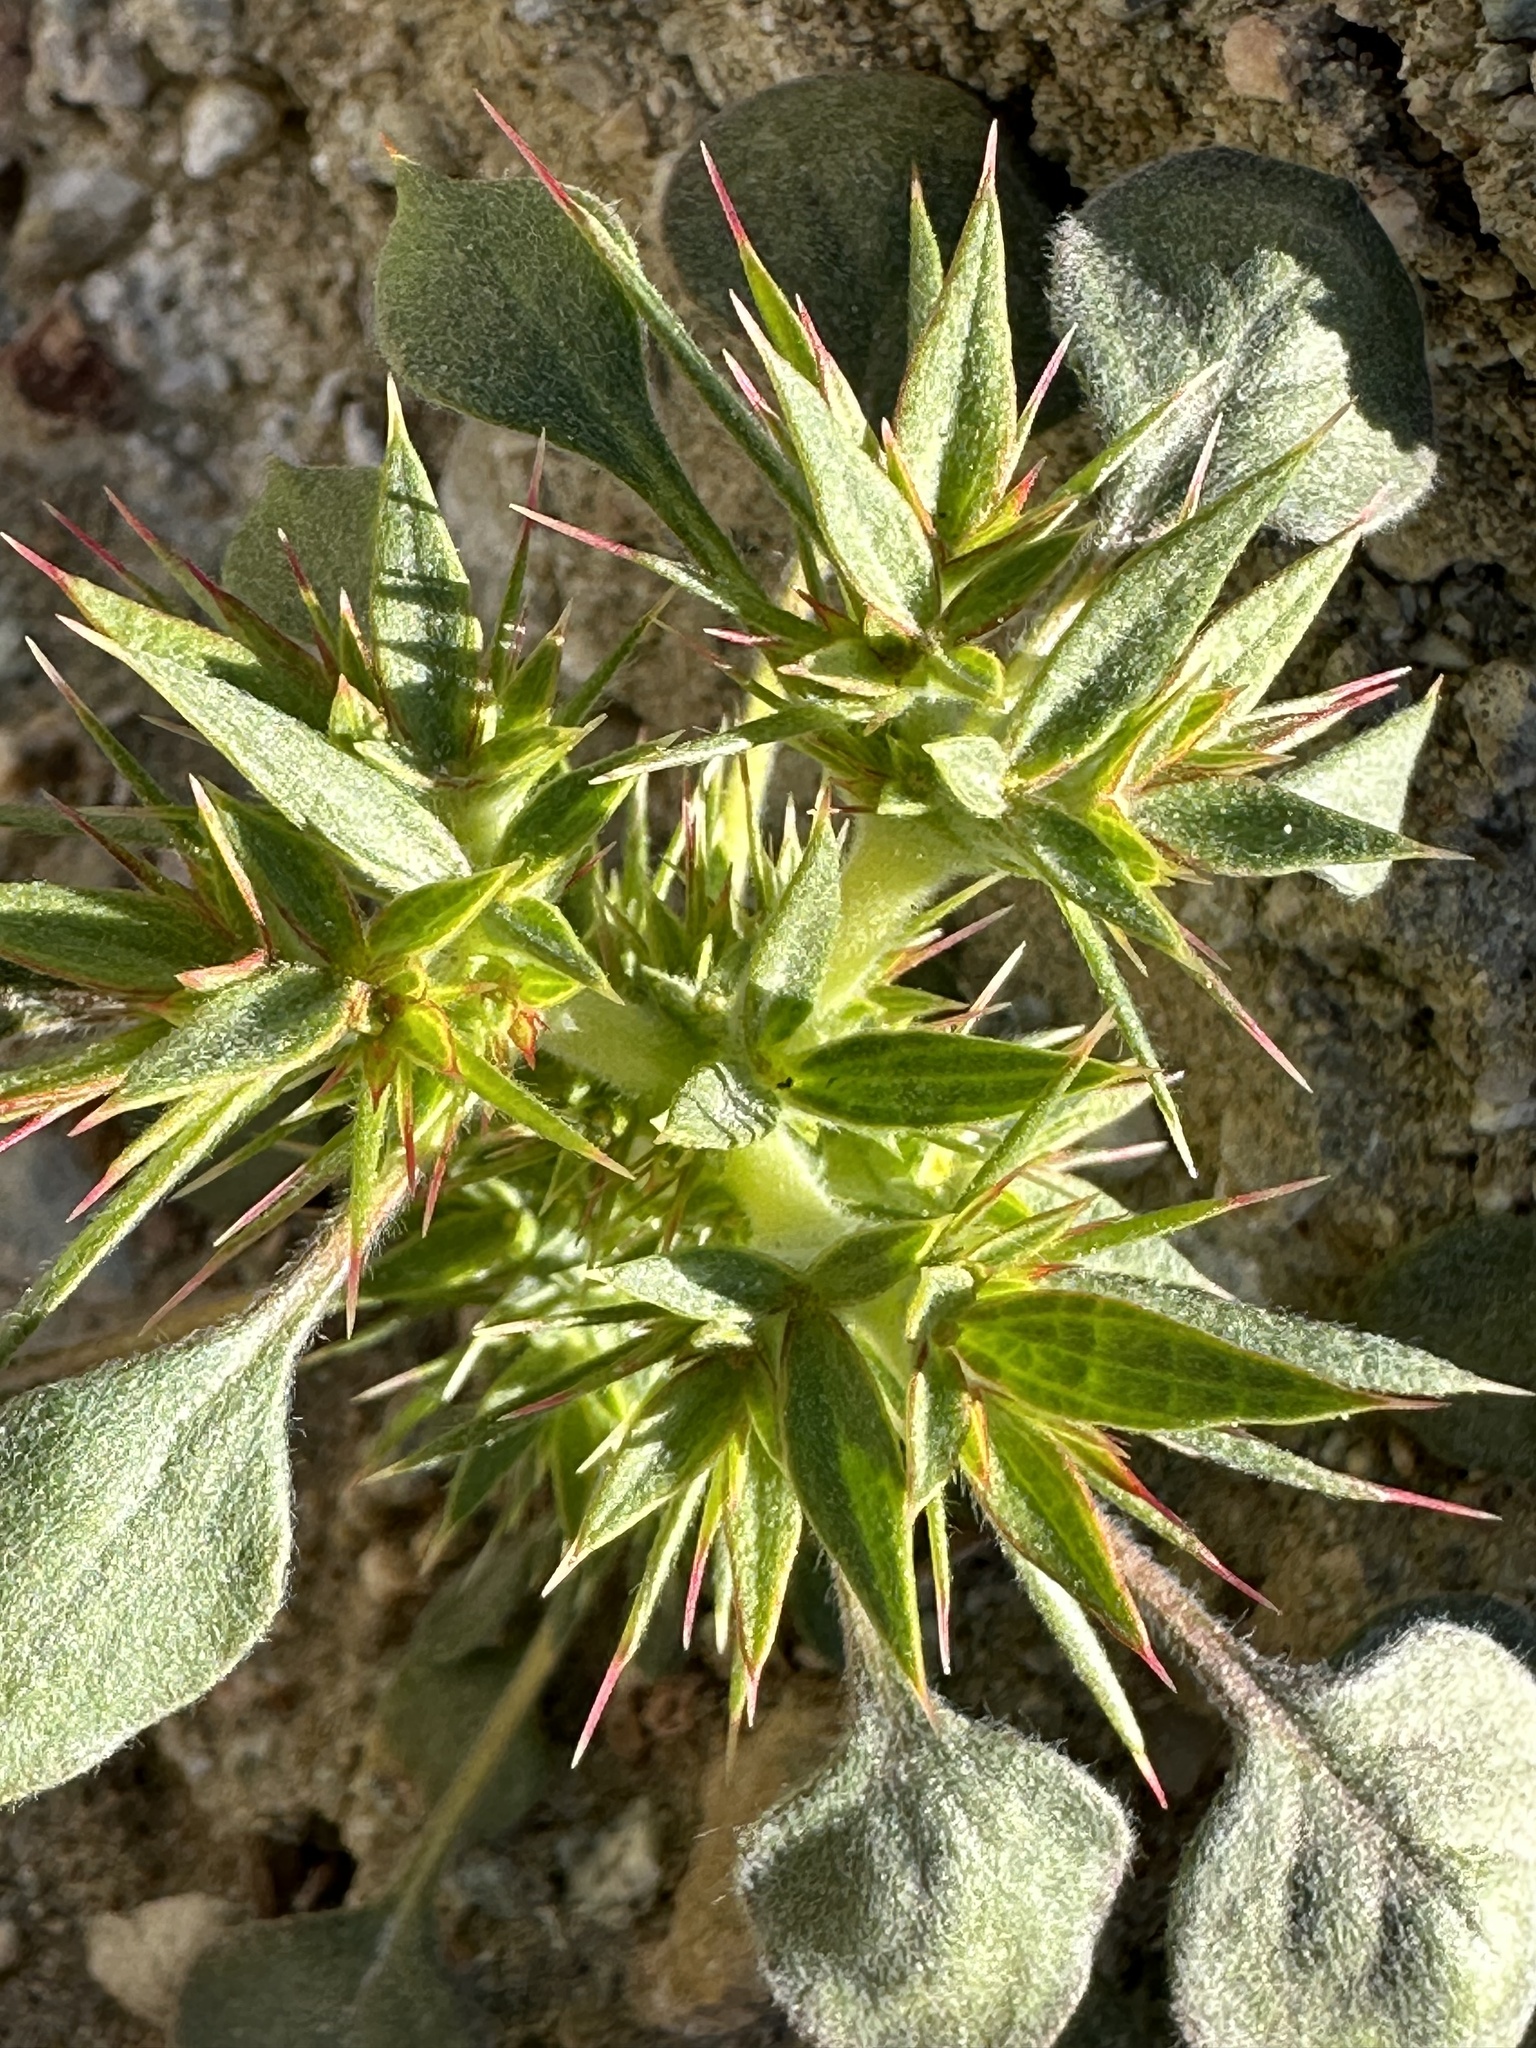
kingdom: Plantae
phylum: Tracheophyta
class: Magnoliopsida
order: Caryophyllales
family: Polygonaceae
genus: Chorizanthe
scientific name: Chorizanthe rigida
